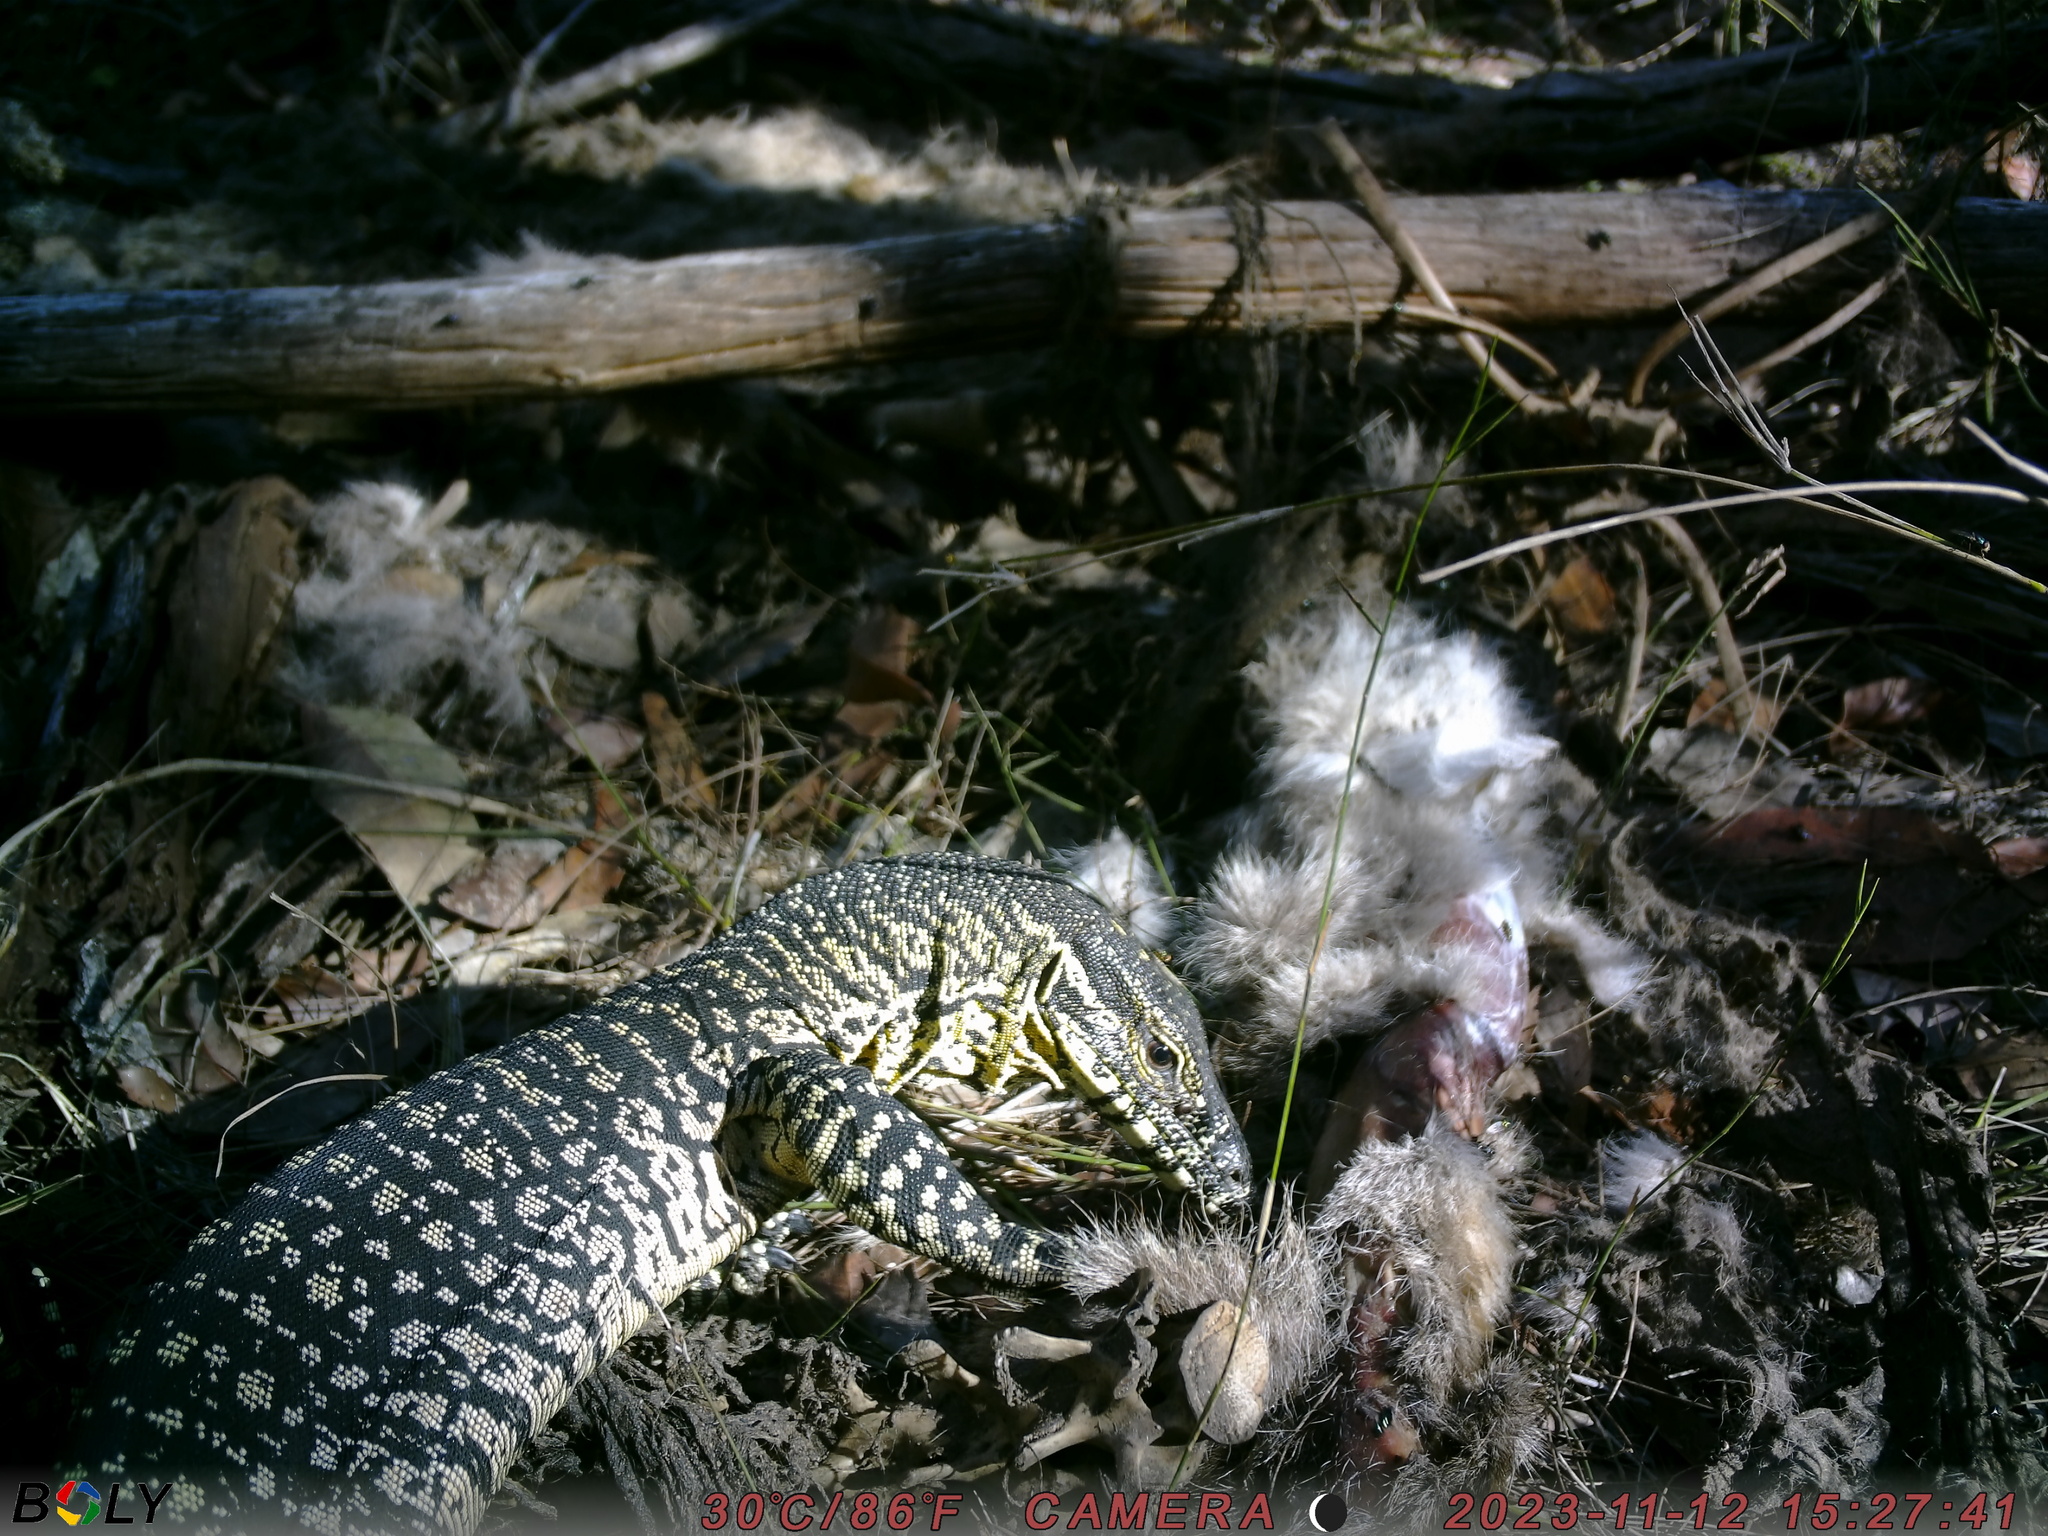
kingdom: Animalia
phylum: Chordata
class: Squamata
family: Varanidae
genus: Varanus
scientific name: Varanus varius
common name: Lace monitor
